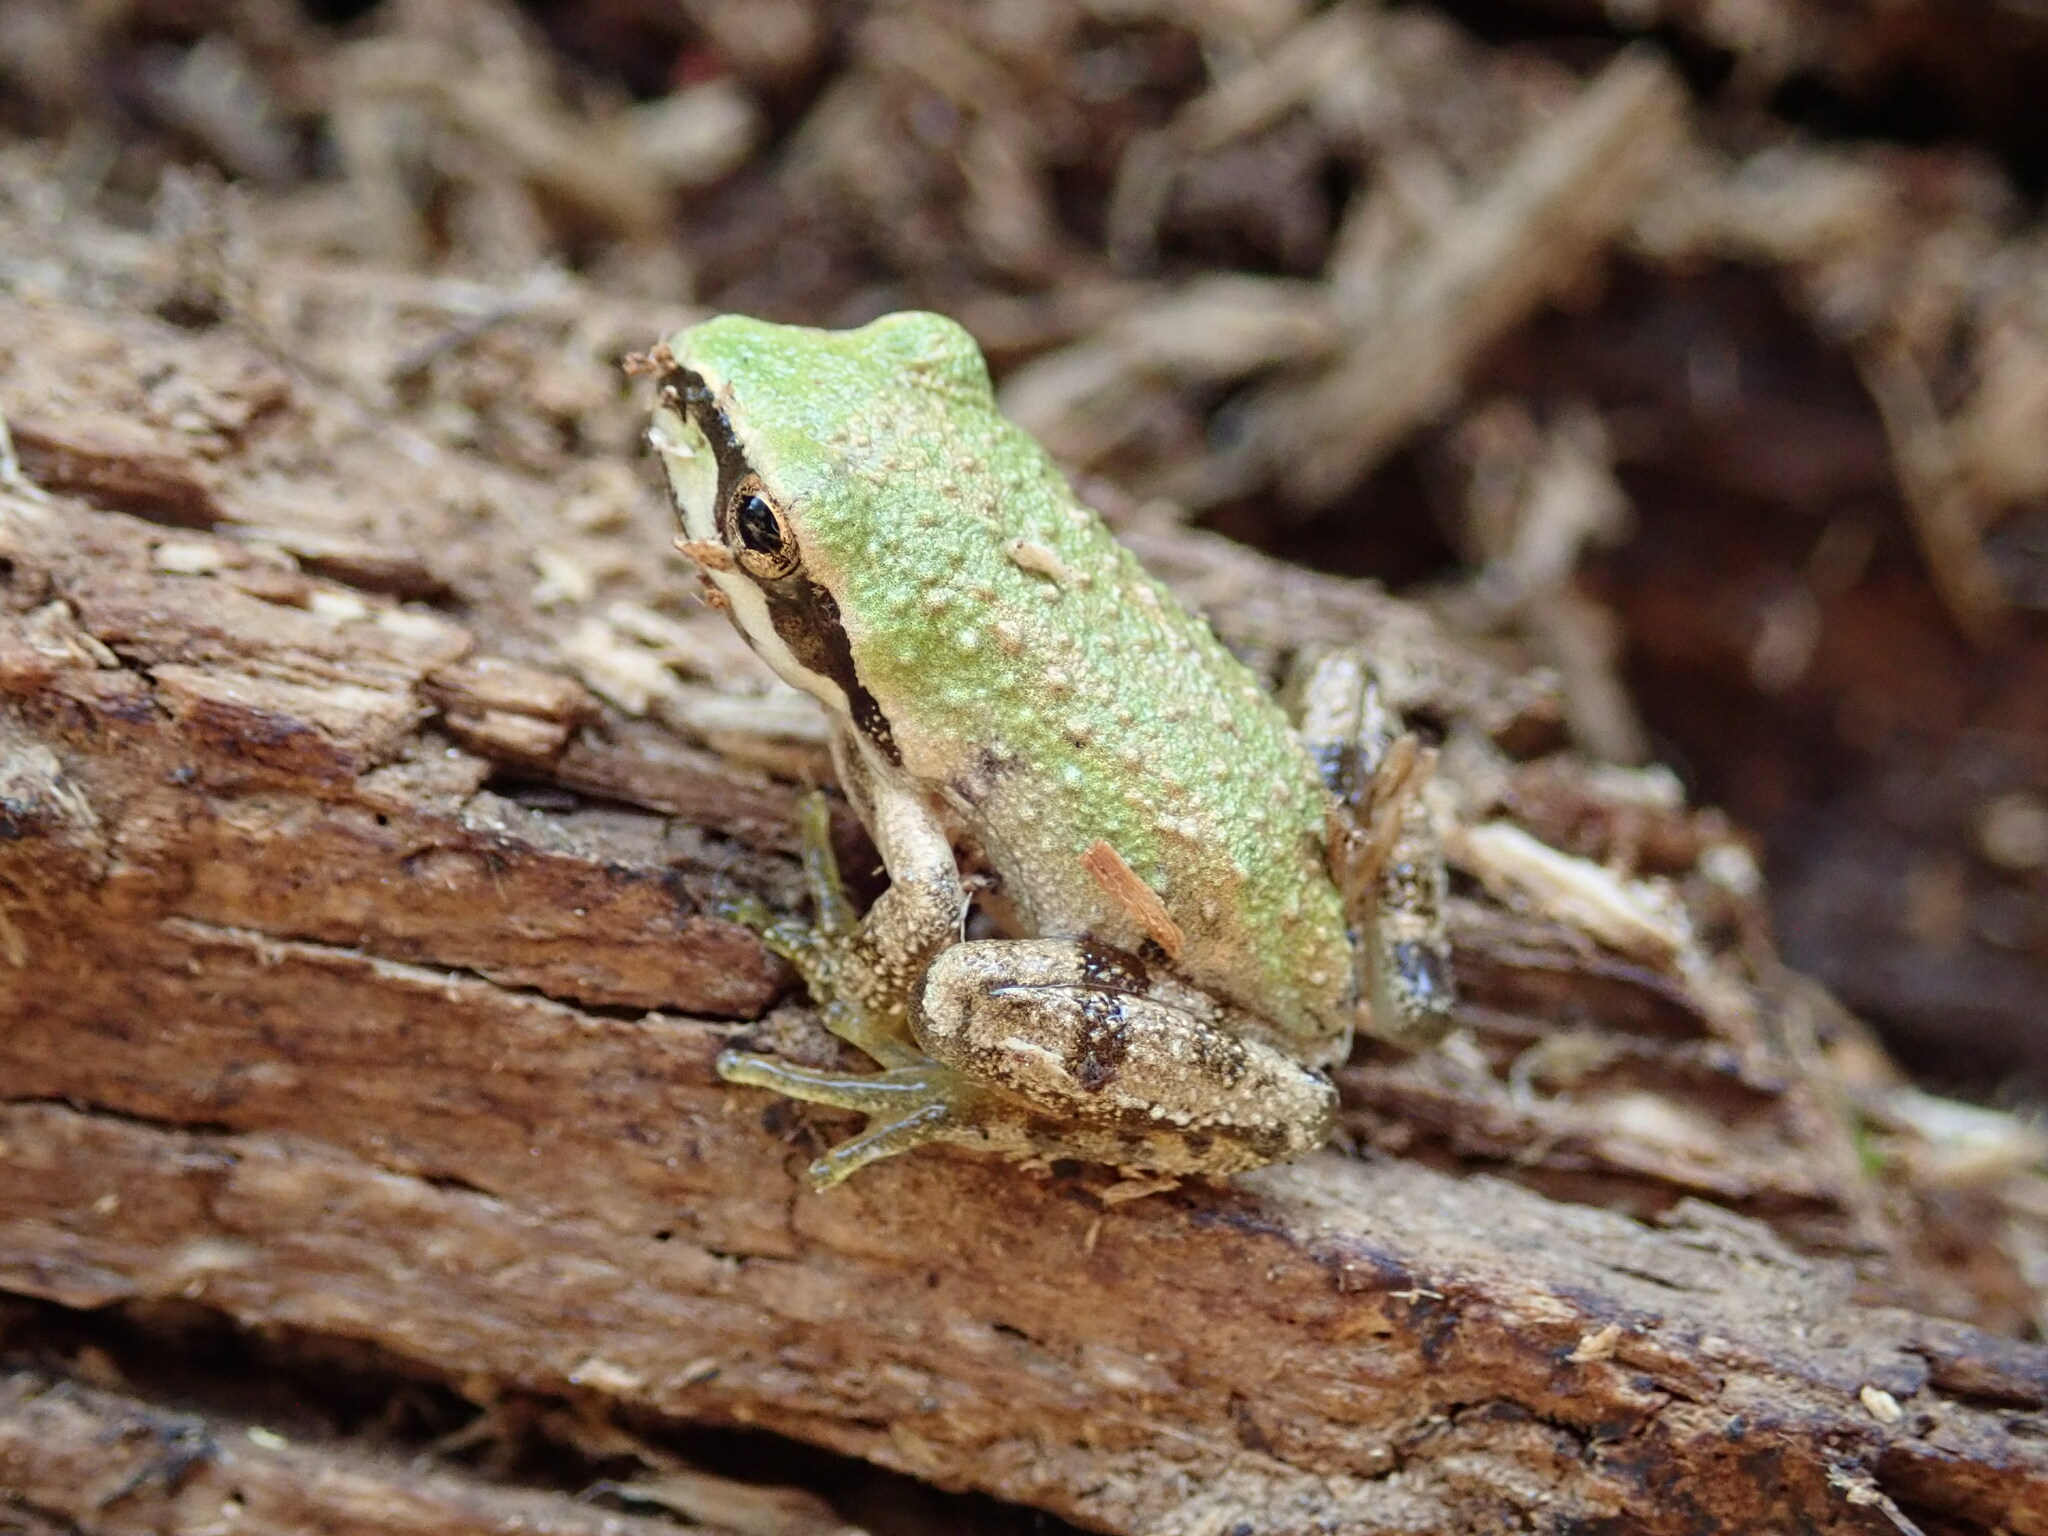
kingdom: Animalia
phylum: Chordata
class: Amphibia
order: Anura
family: Hylidae
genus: Pseudacris
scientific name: Pseudacris regilla
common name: Pacific chorus frog
